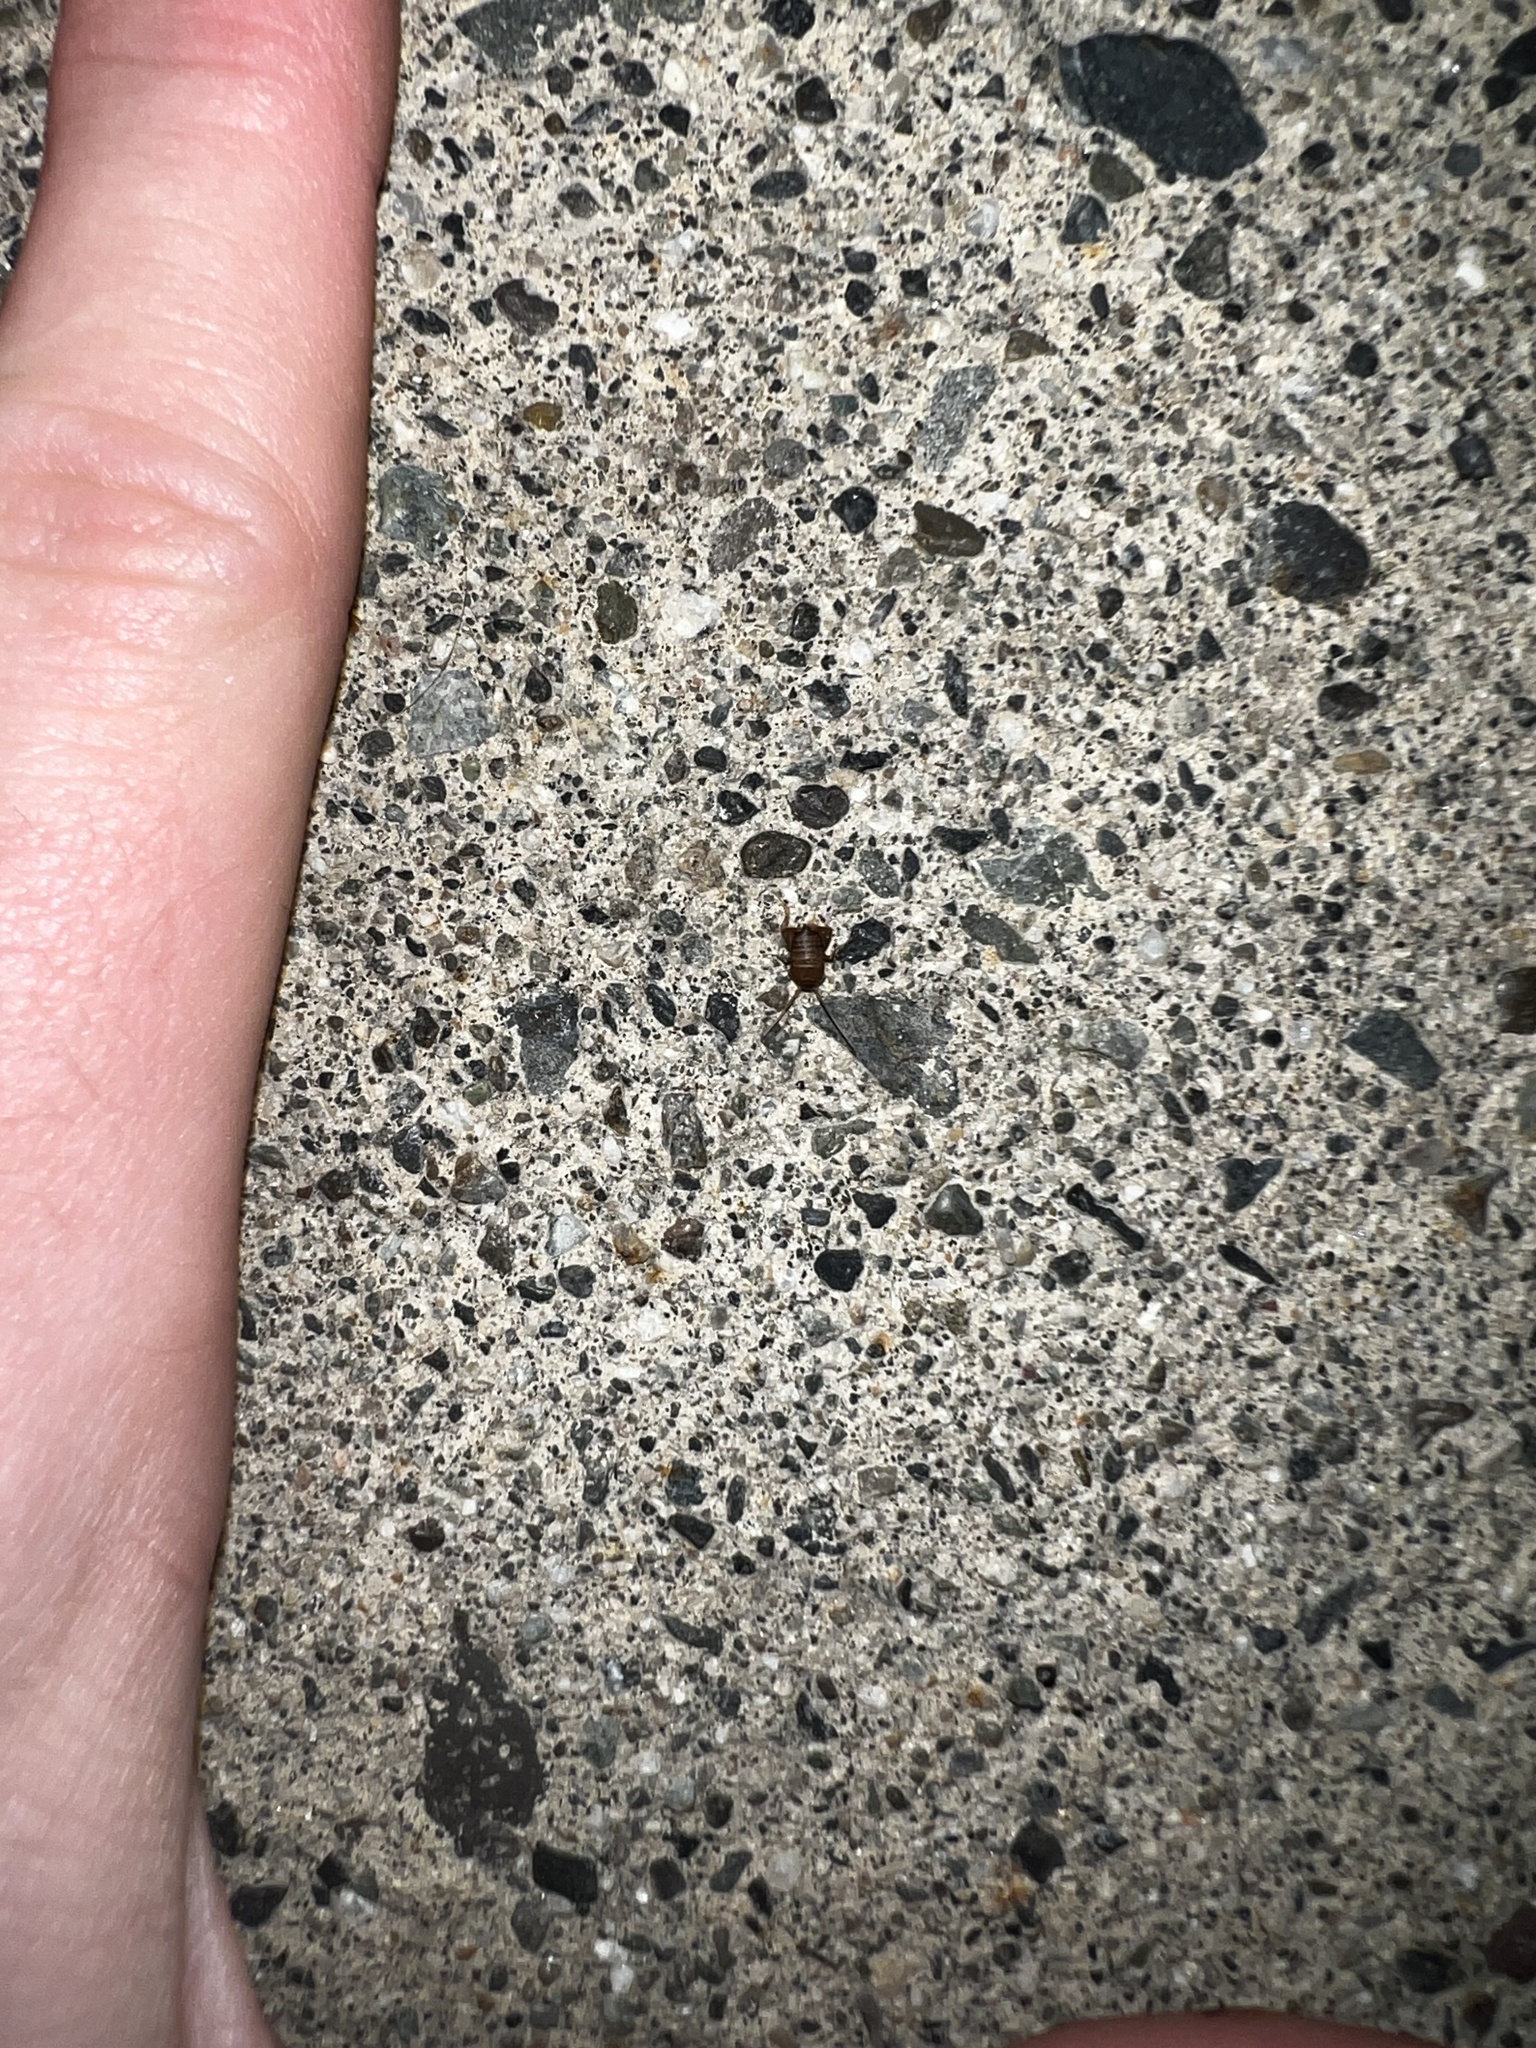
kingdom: Animalia
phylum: Arthropoda
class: Insecta
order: Orthoptera
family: Myrmecophilidae
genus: Myrmecophilus
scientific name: Myrmecophilus oregonensis
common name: Oregon ant cricket
